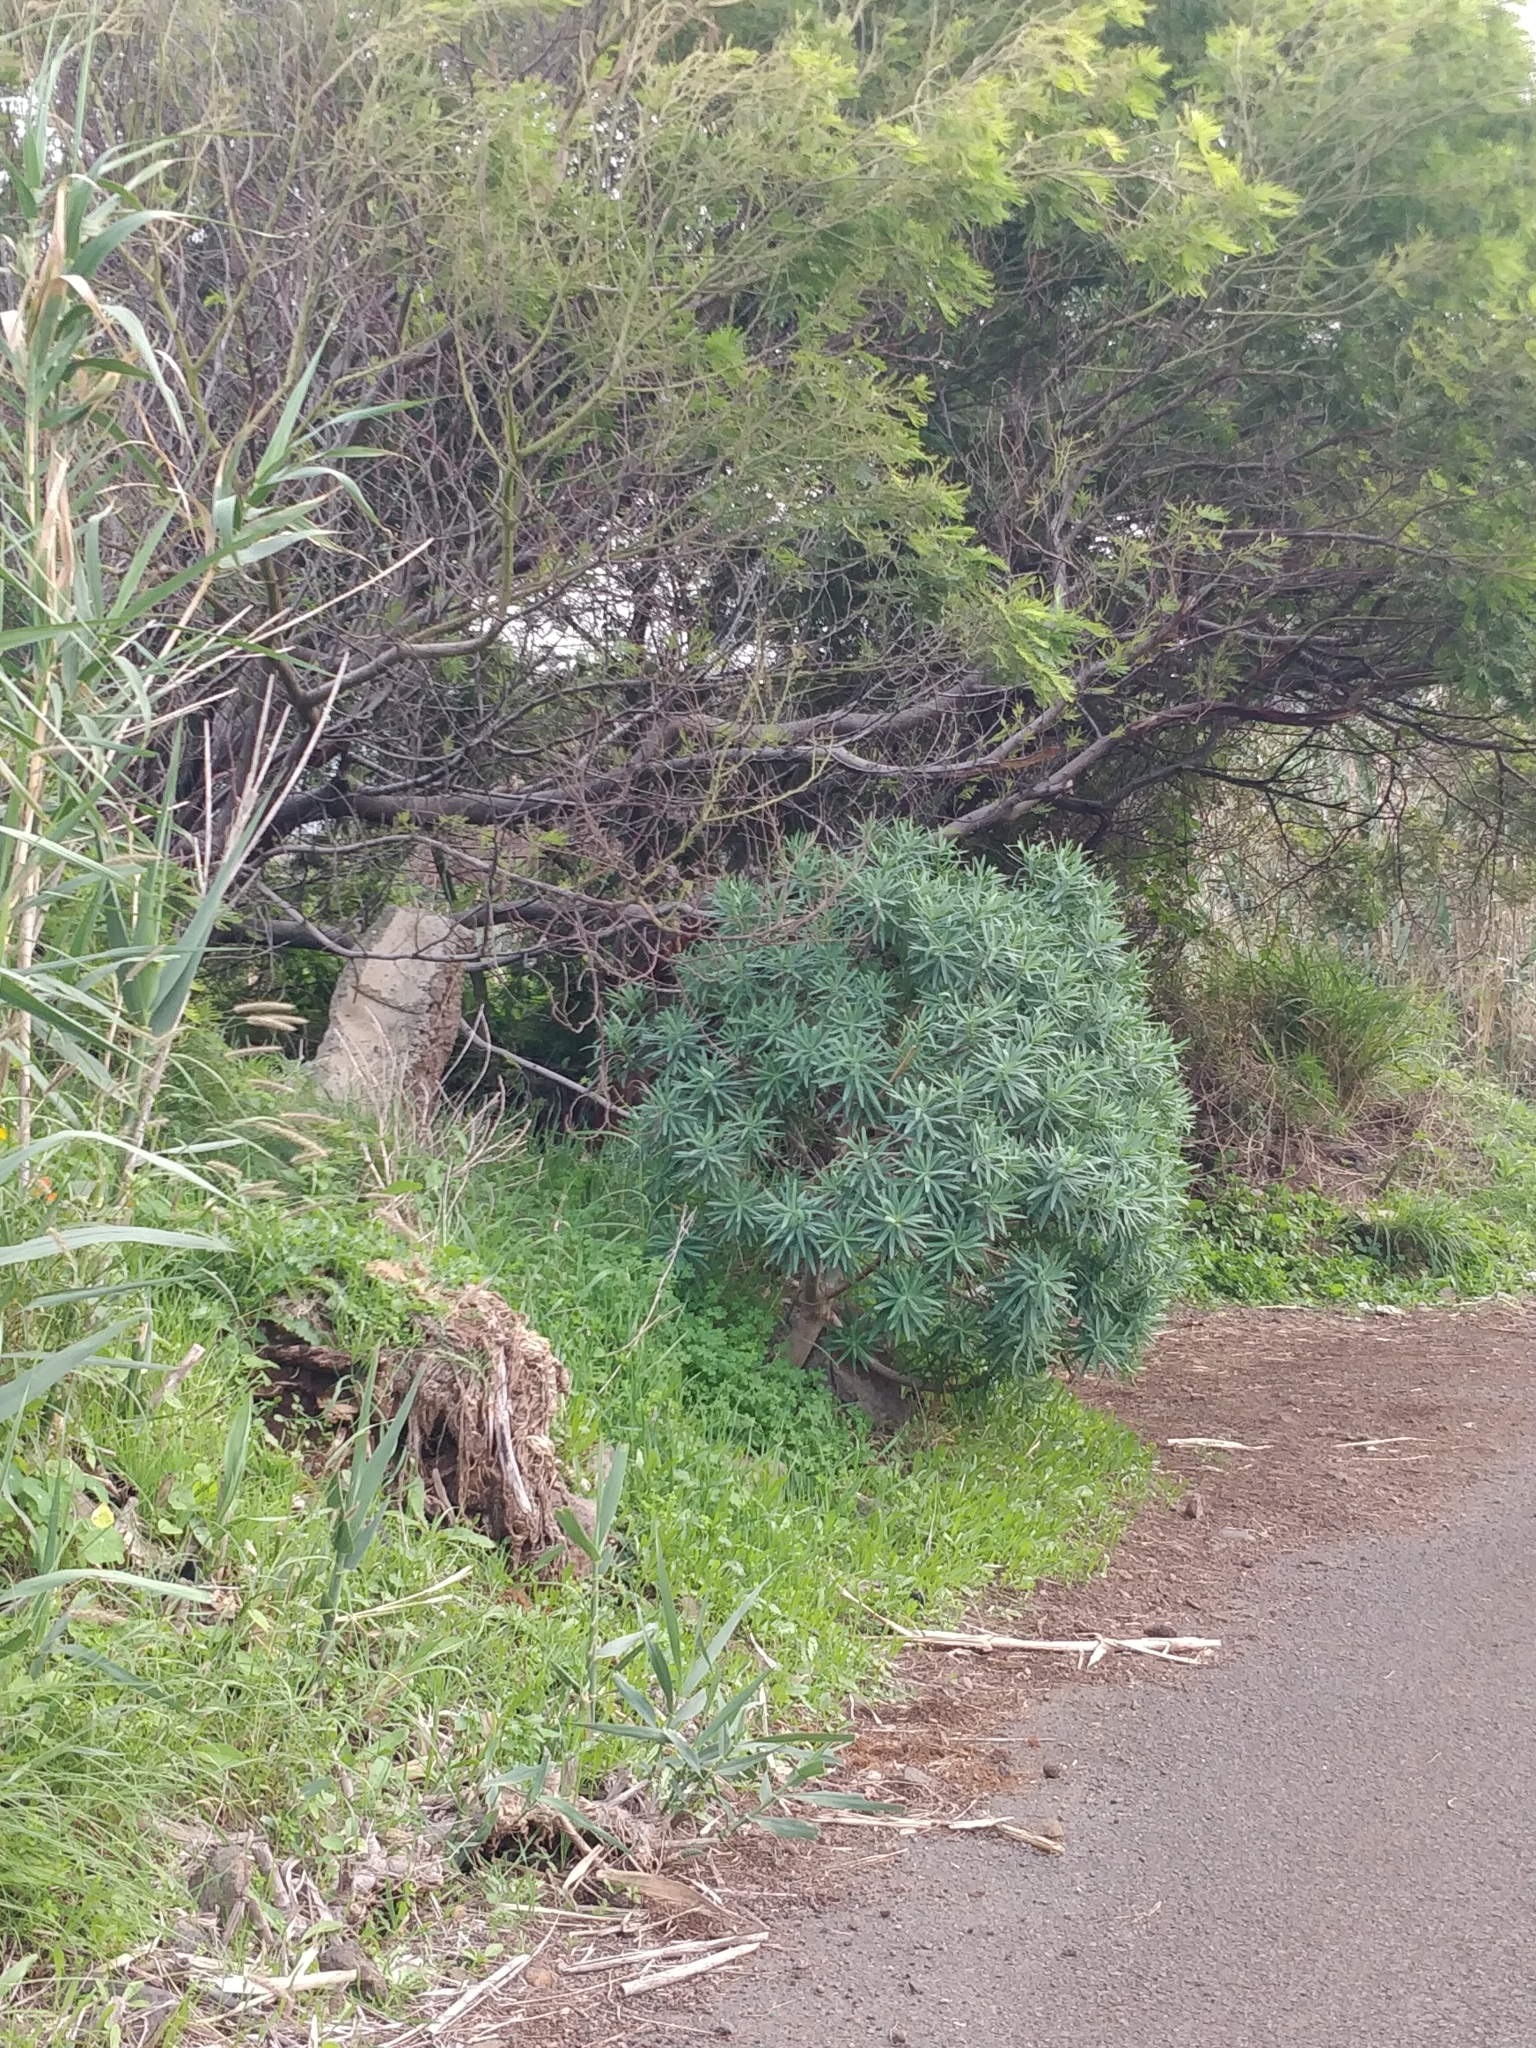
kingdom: Plantae
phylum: Tracheophyta
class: Magnoliopsida
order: Malpighiales
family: Euphorbiaceae
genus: Euphorbia
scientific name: Euphorbia piscatoria
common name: Fish-stunning spurge
